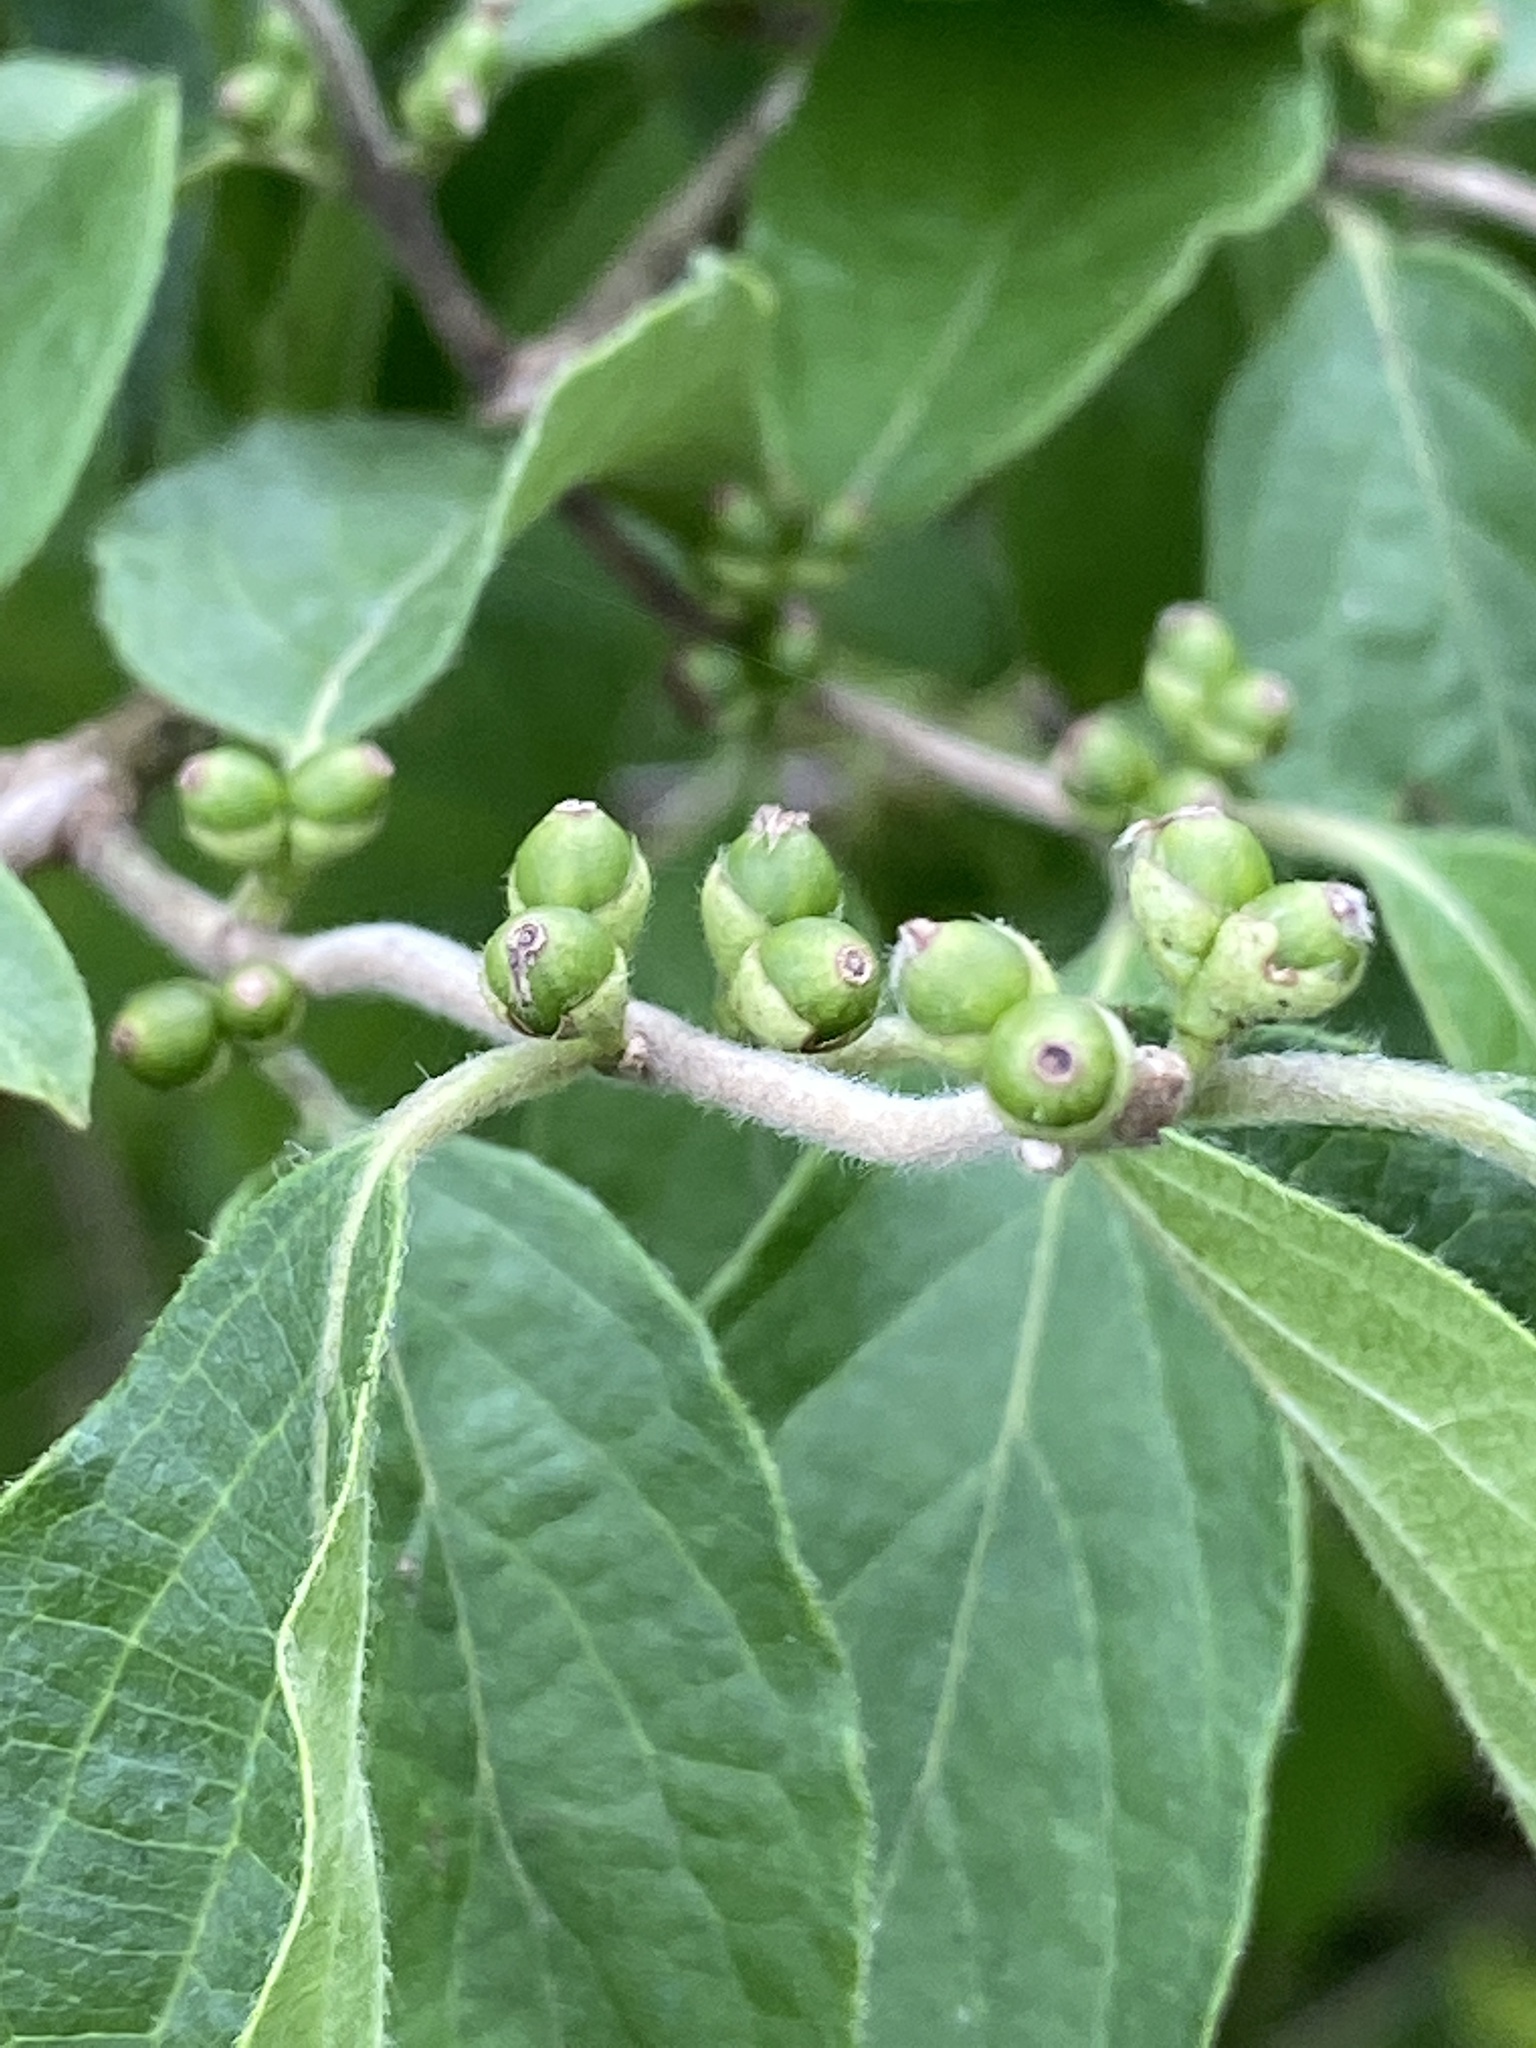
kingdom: Plantae
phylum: Tracheophyta
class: Magnoliopsida
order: Dipsacales
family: Caprifoliaceae
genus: Lonicera
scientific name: Lonicera maackii
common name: Amur honeysuckle
